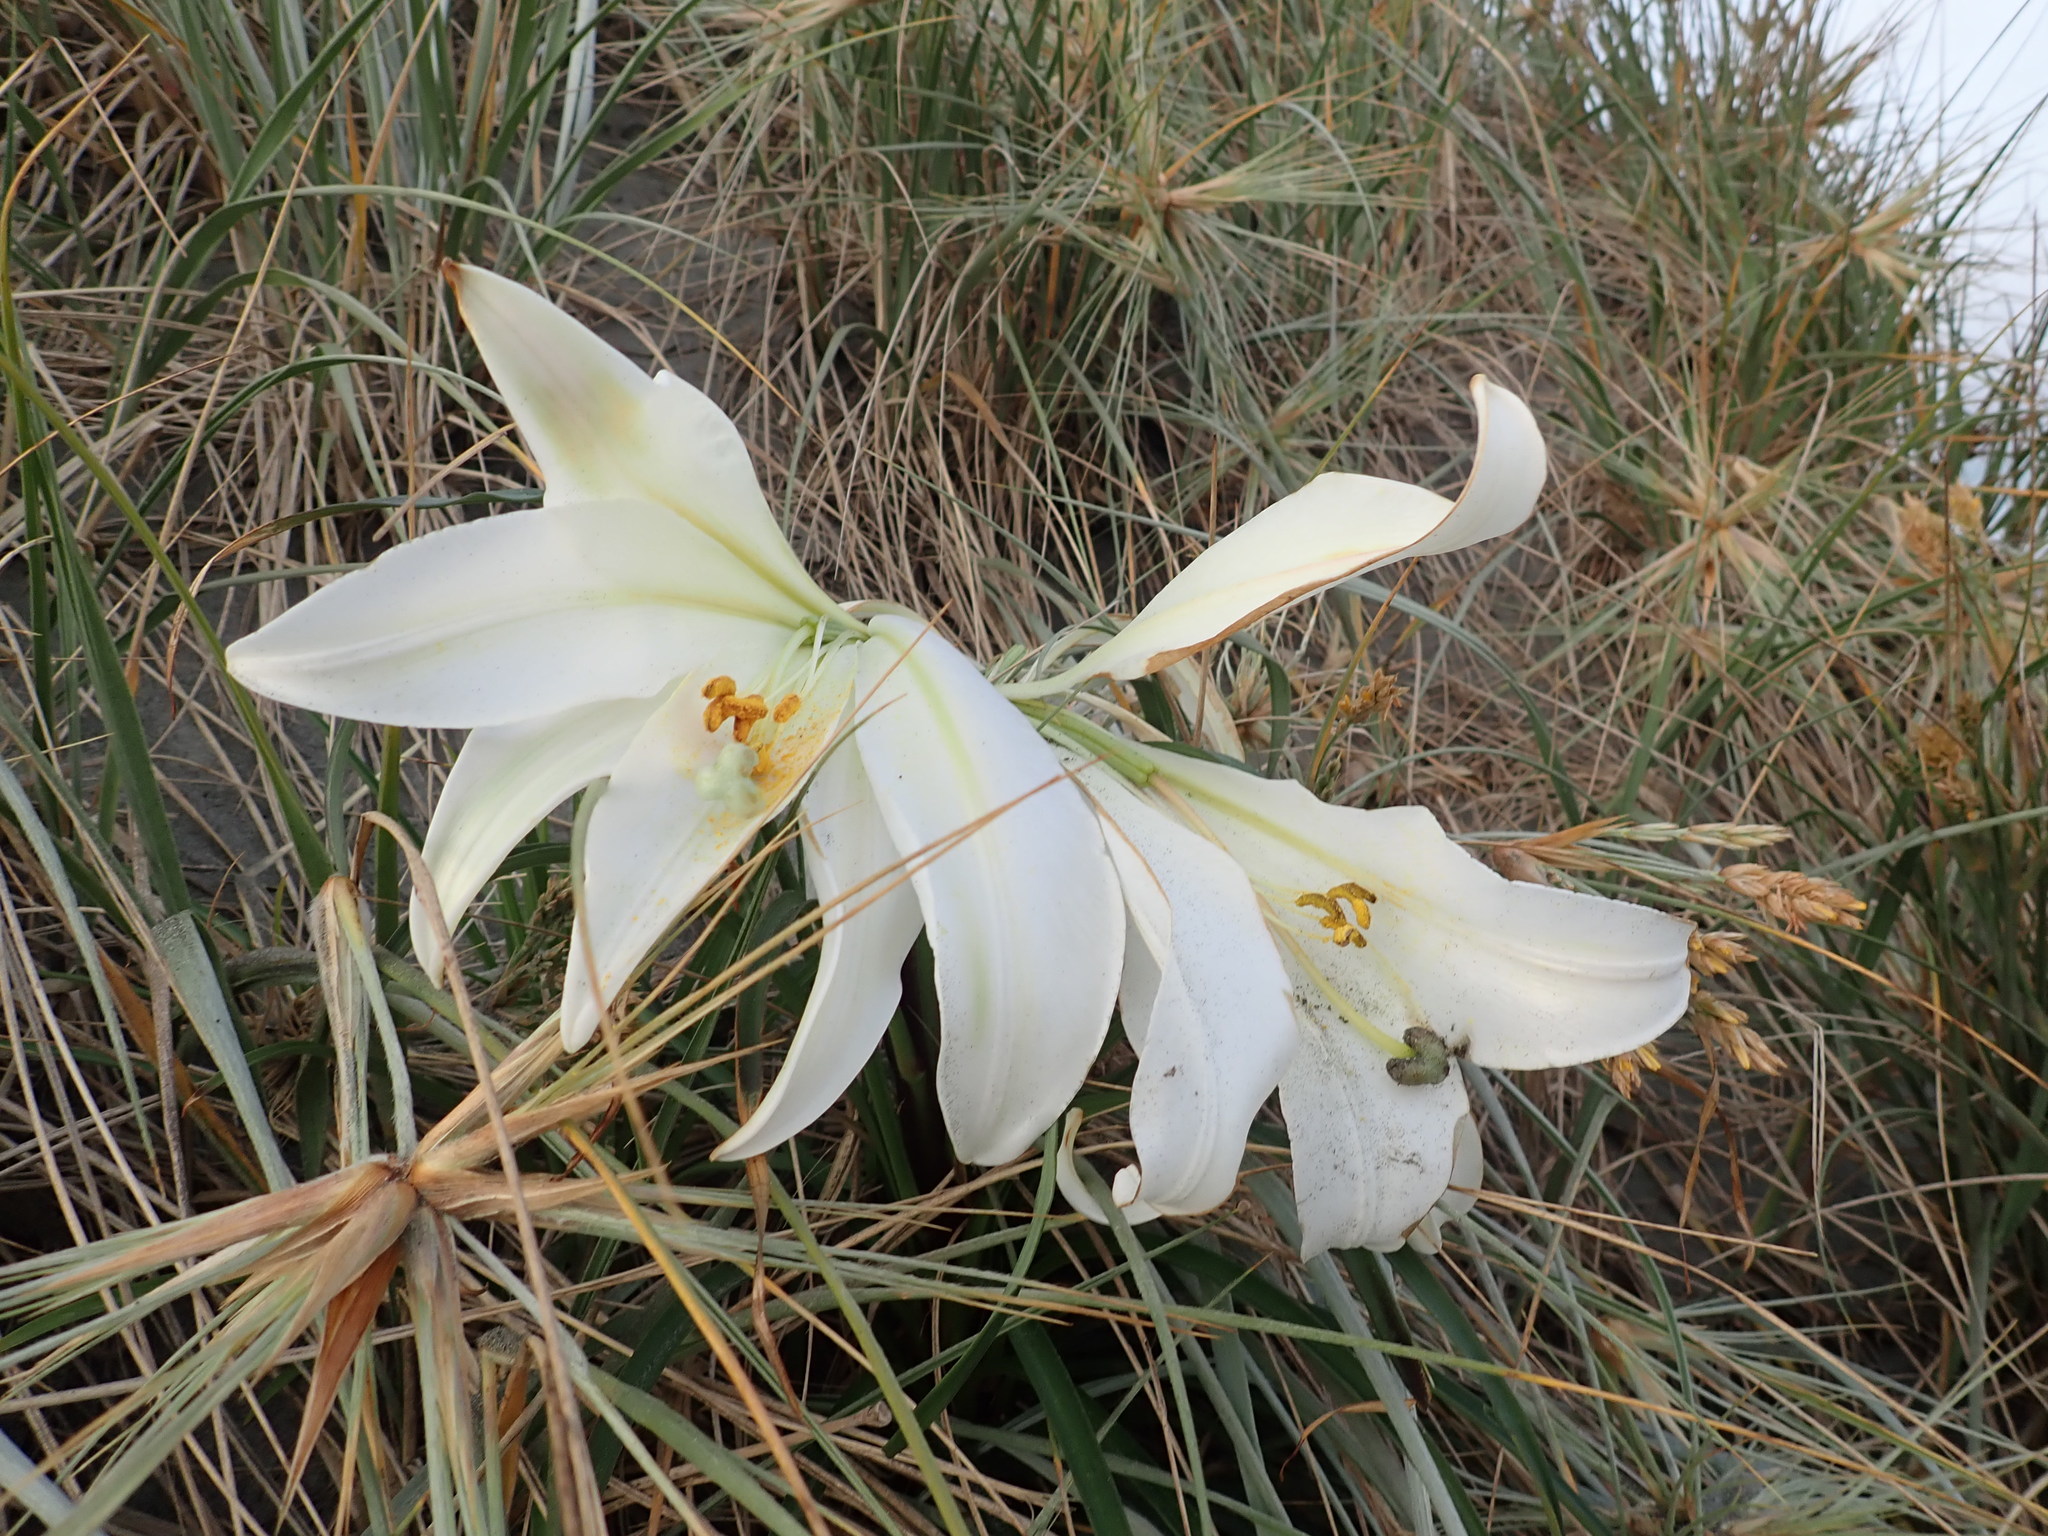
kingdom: Plantae
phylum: Tracheophyta
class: Liliopsida
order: Liliales
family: Liliaceae
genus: Lilium
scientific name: Lilium formosanum
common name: Formosa lily
